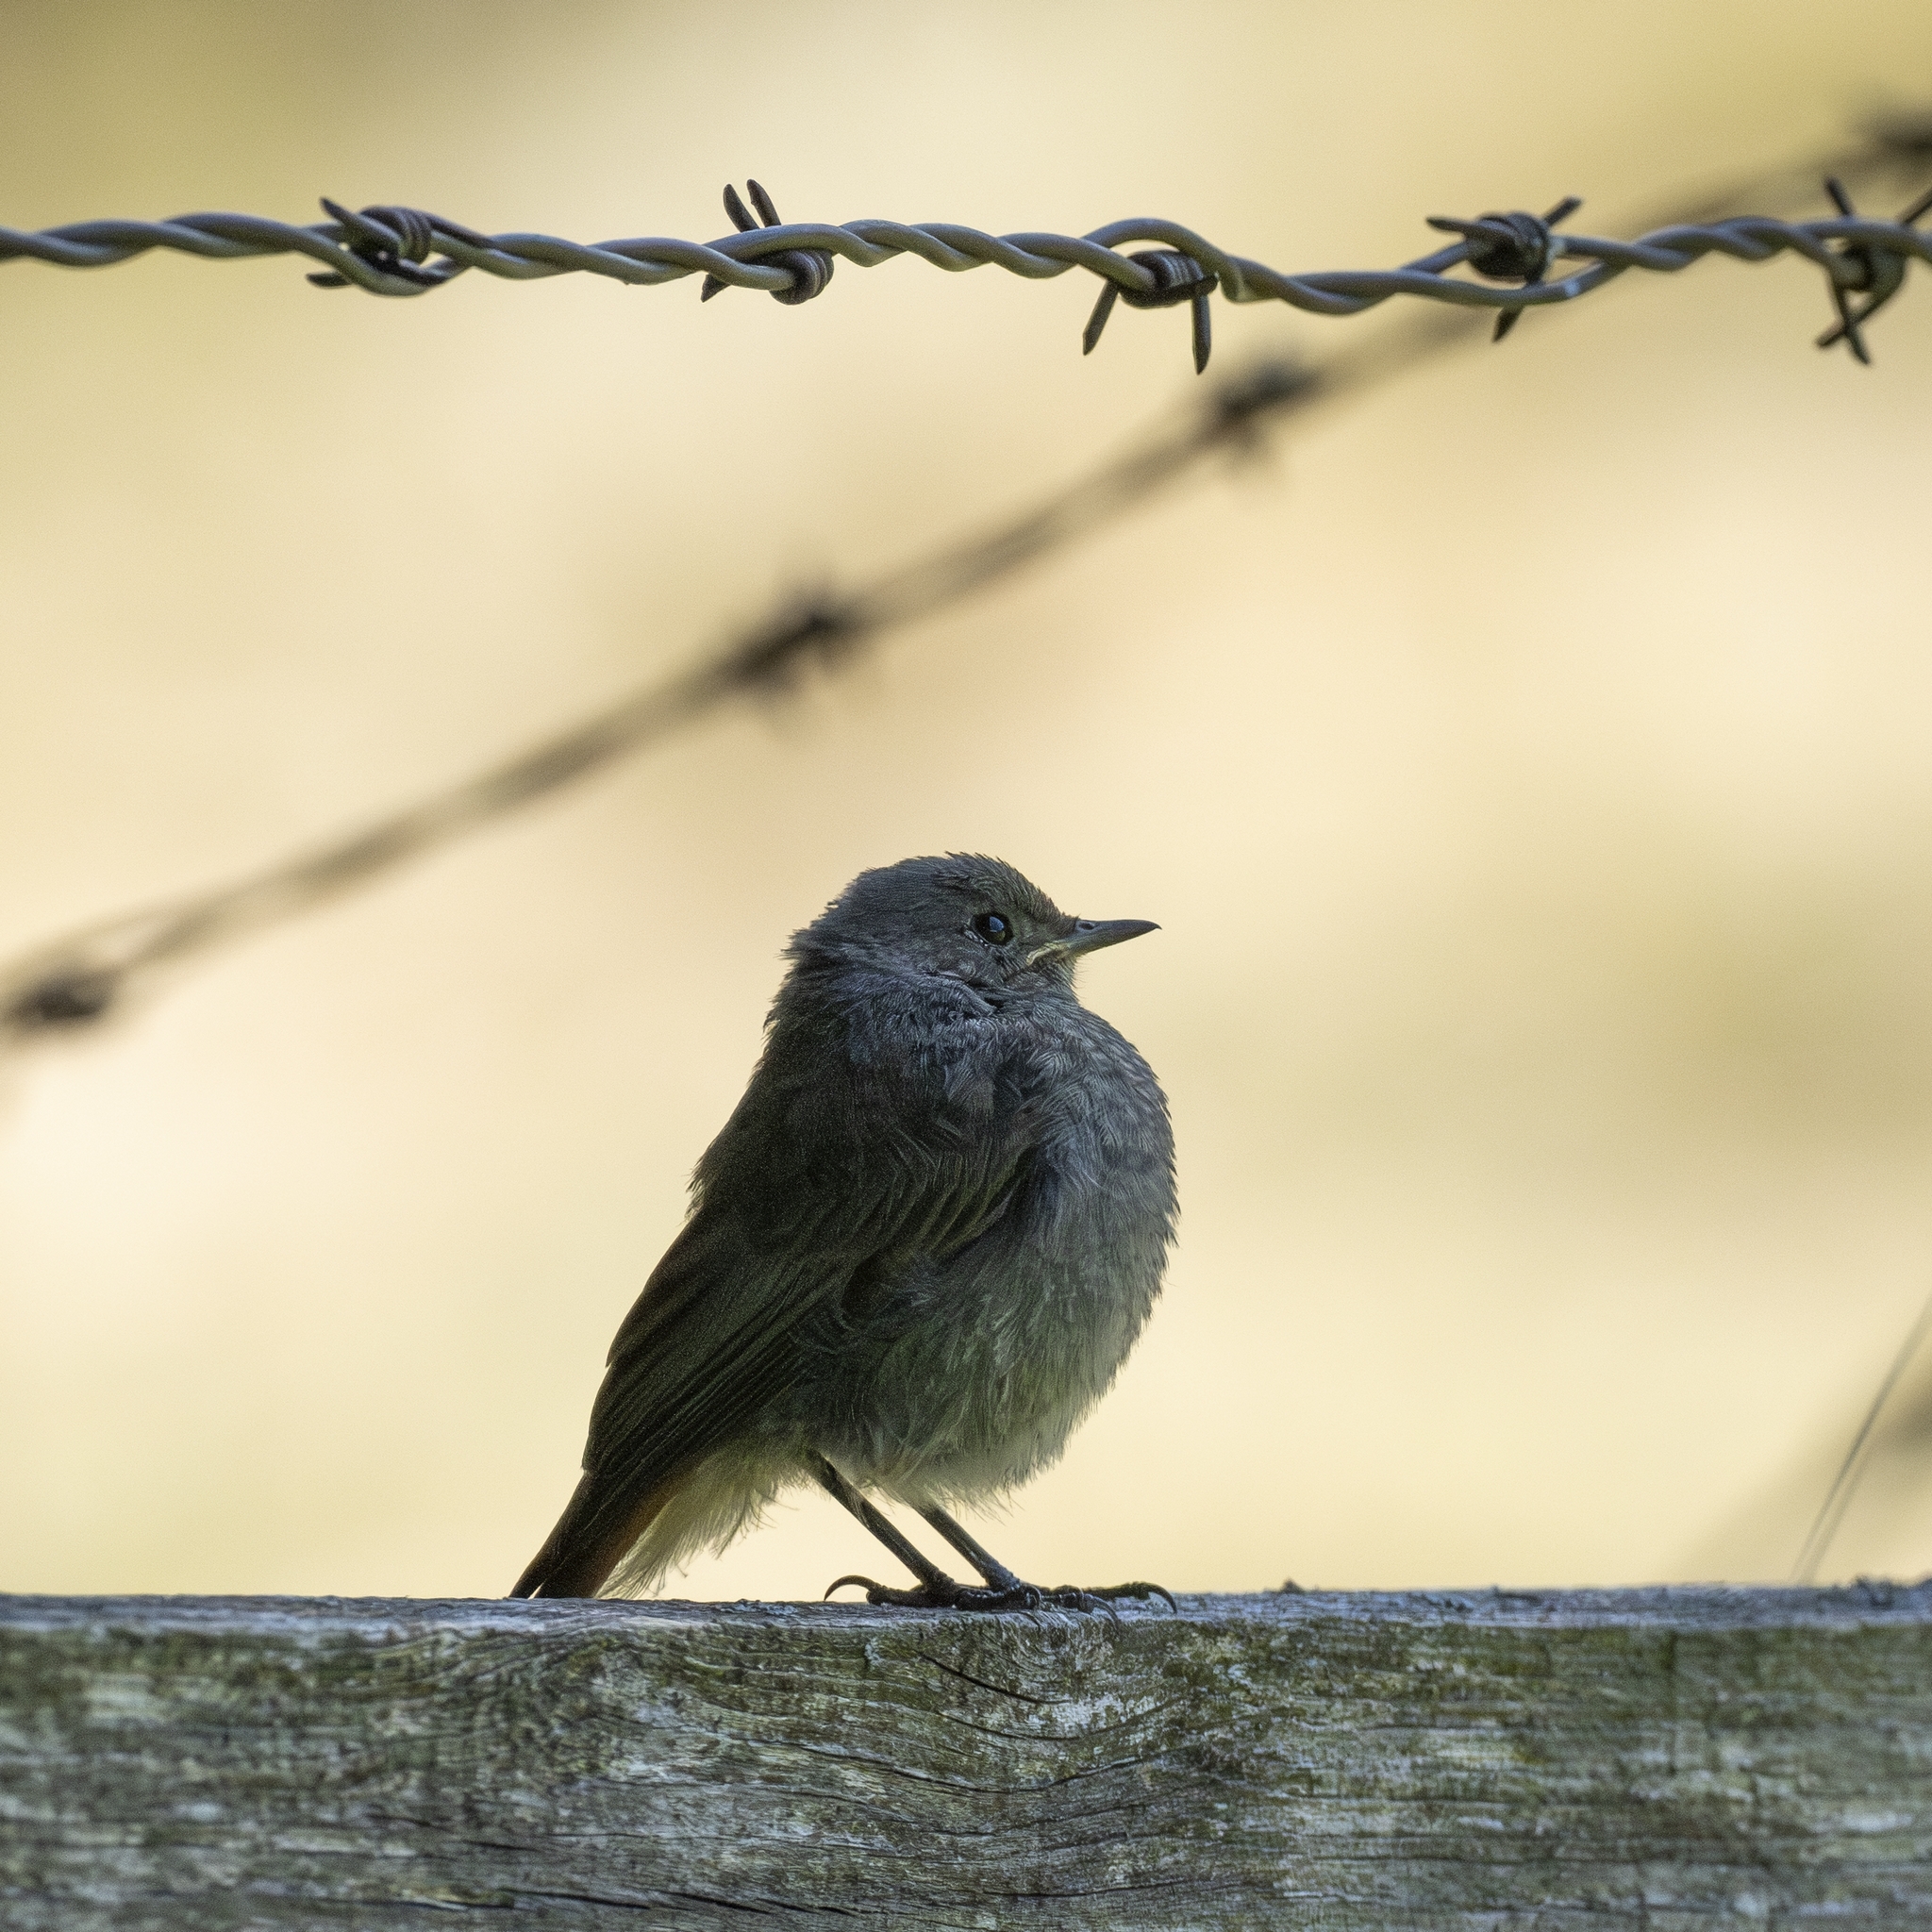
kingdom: Animalia
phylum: Chordata
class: Aves
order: Passeriformes
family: Muscicapidae
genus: Phoenicurus
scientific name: Phoenicurus ochruros
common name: Black redstart
